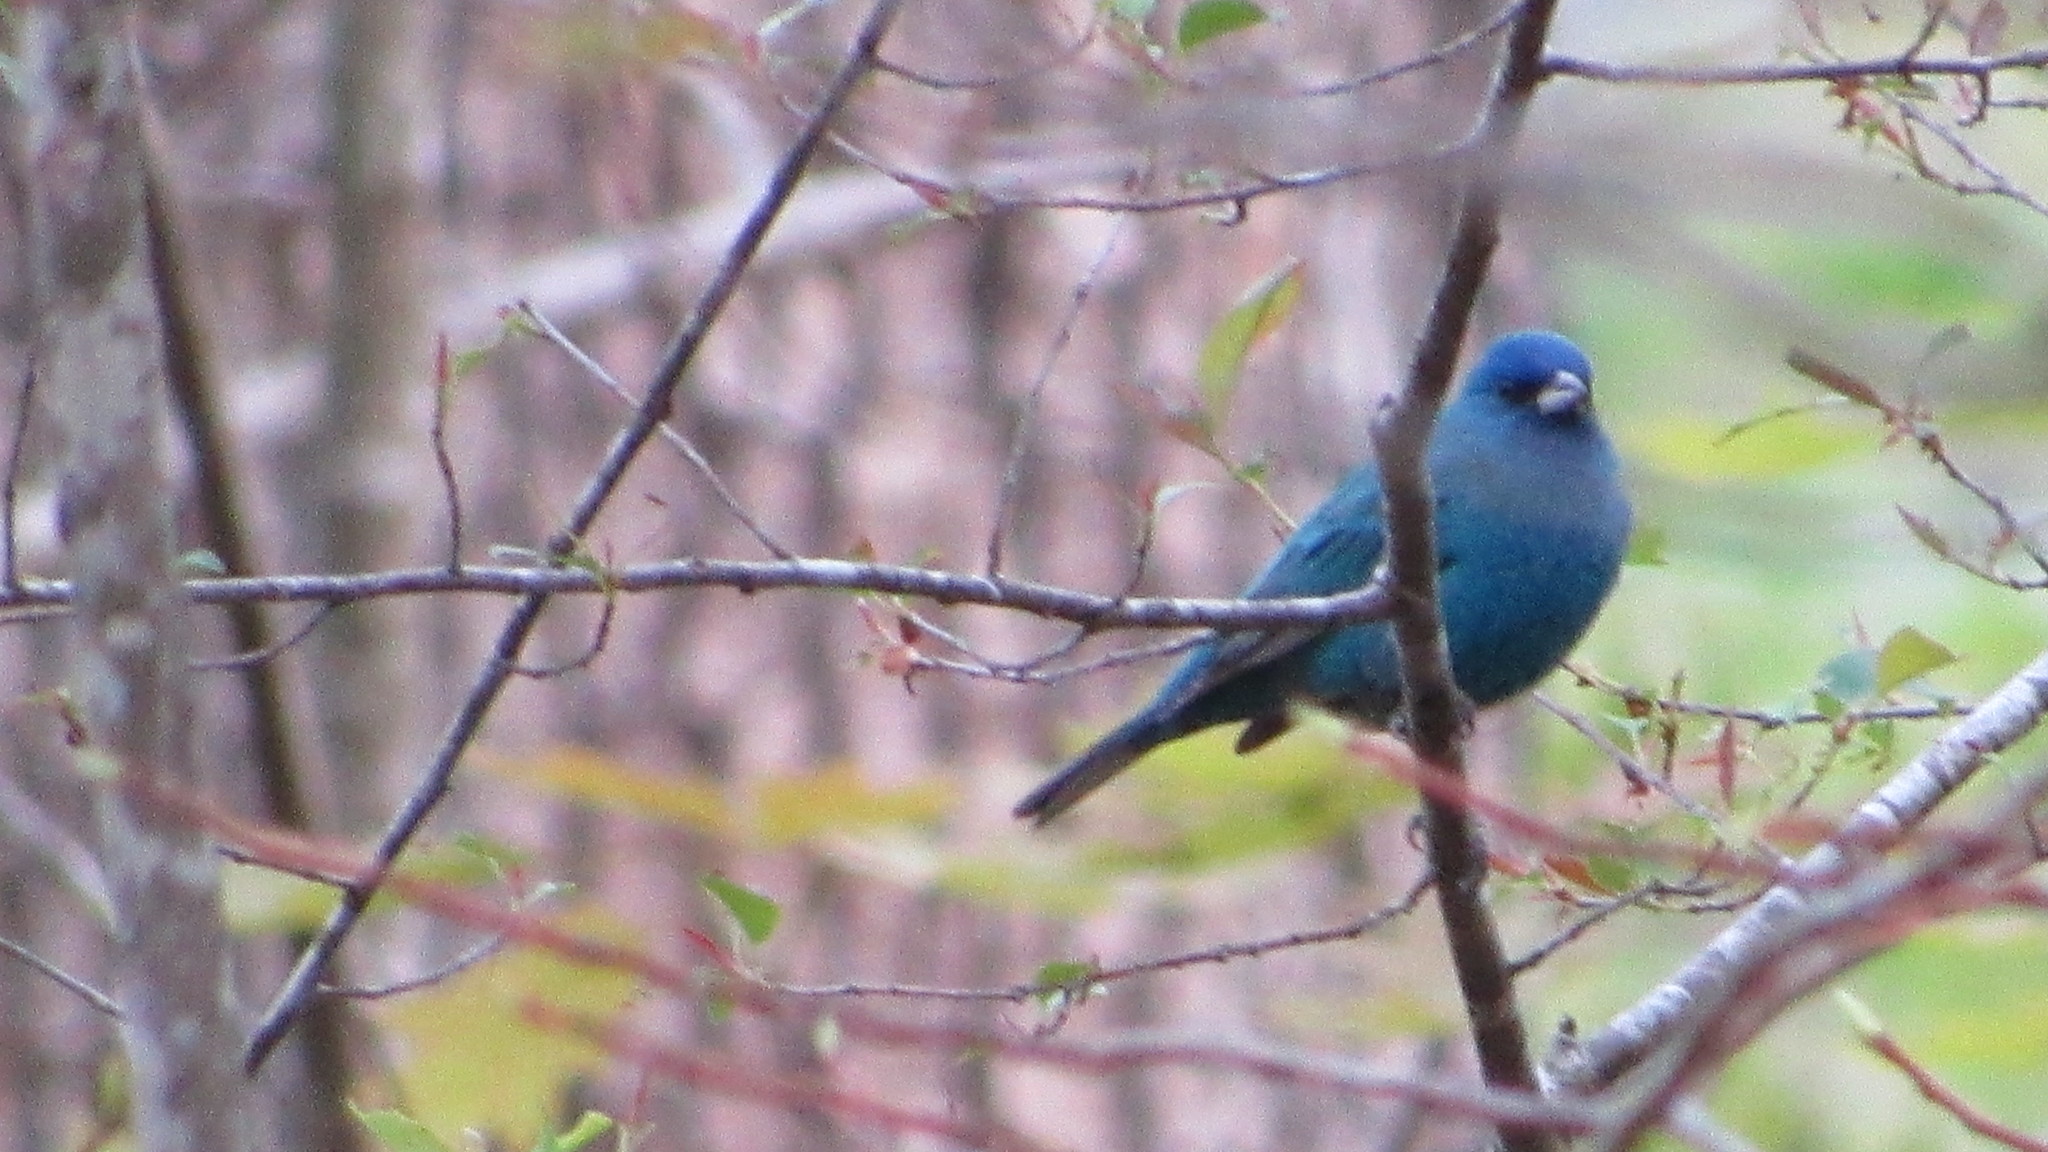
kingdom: Animalia
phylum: Chordata
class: Aves
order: Passeriformes
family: Cardinalidae
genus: Passerina
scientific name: Passerina cyanea
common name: Indigo bunting
